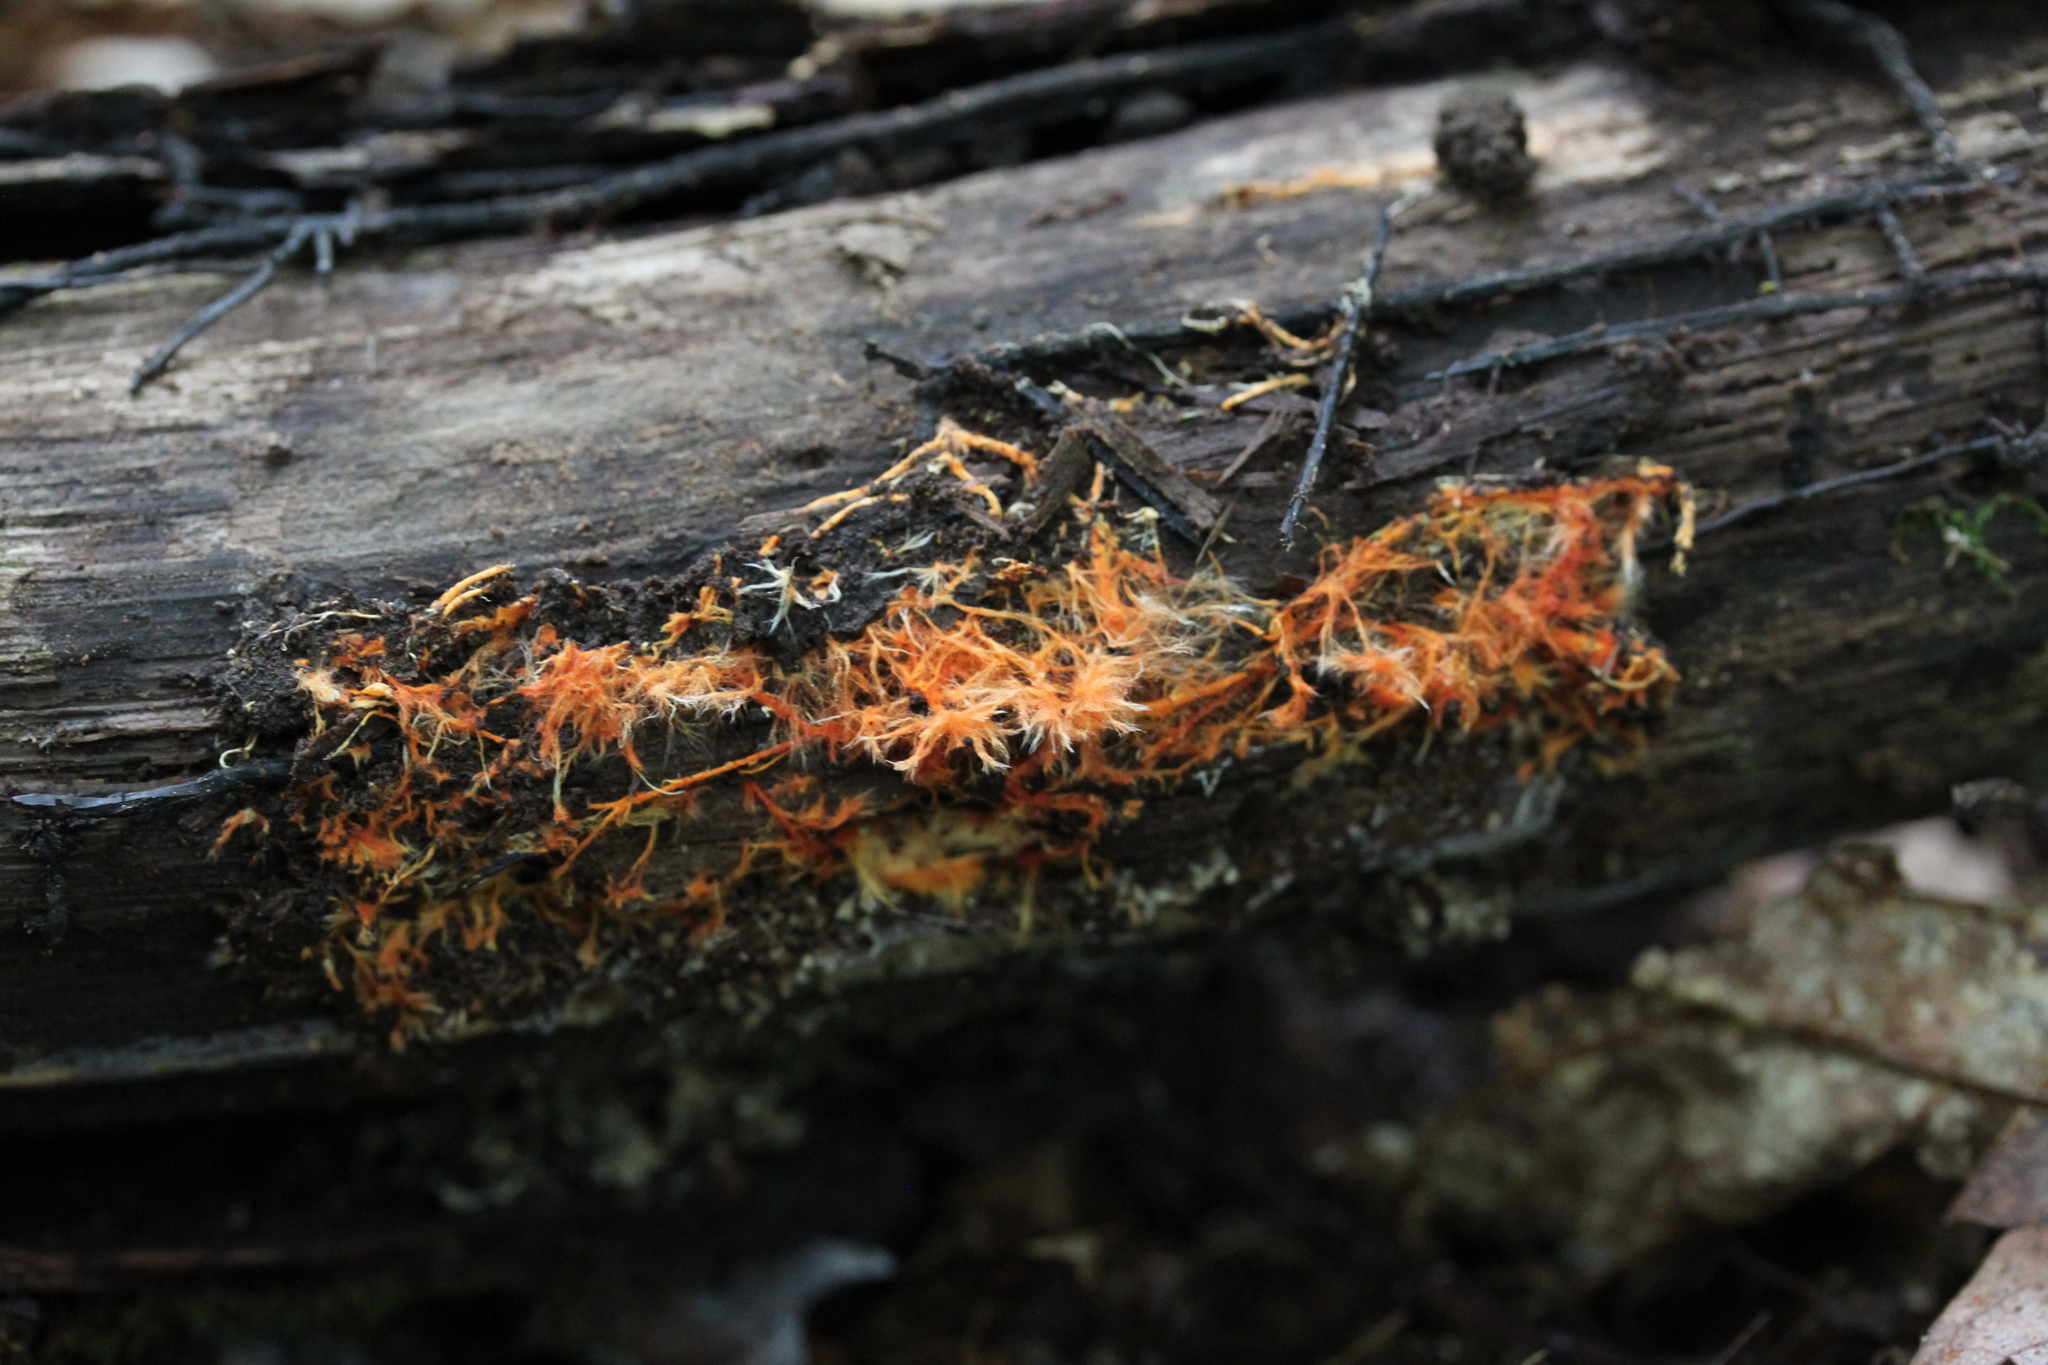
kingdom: Fungi
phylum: Basidiomycota
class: Agaricomycetes
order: Agaricales
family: Psathyrellaceae
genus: Coprinellus
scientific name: Coprinellus domesticus
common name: Firerug inkcap
